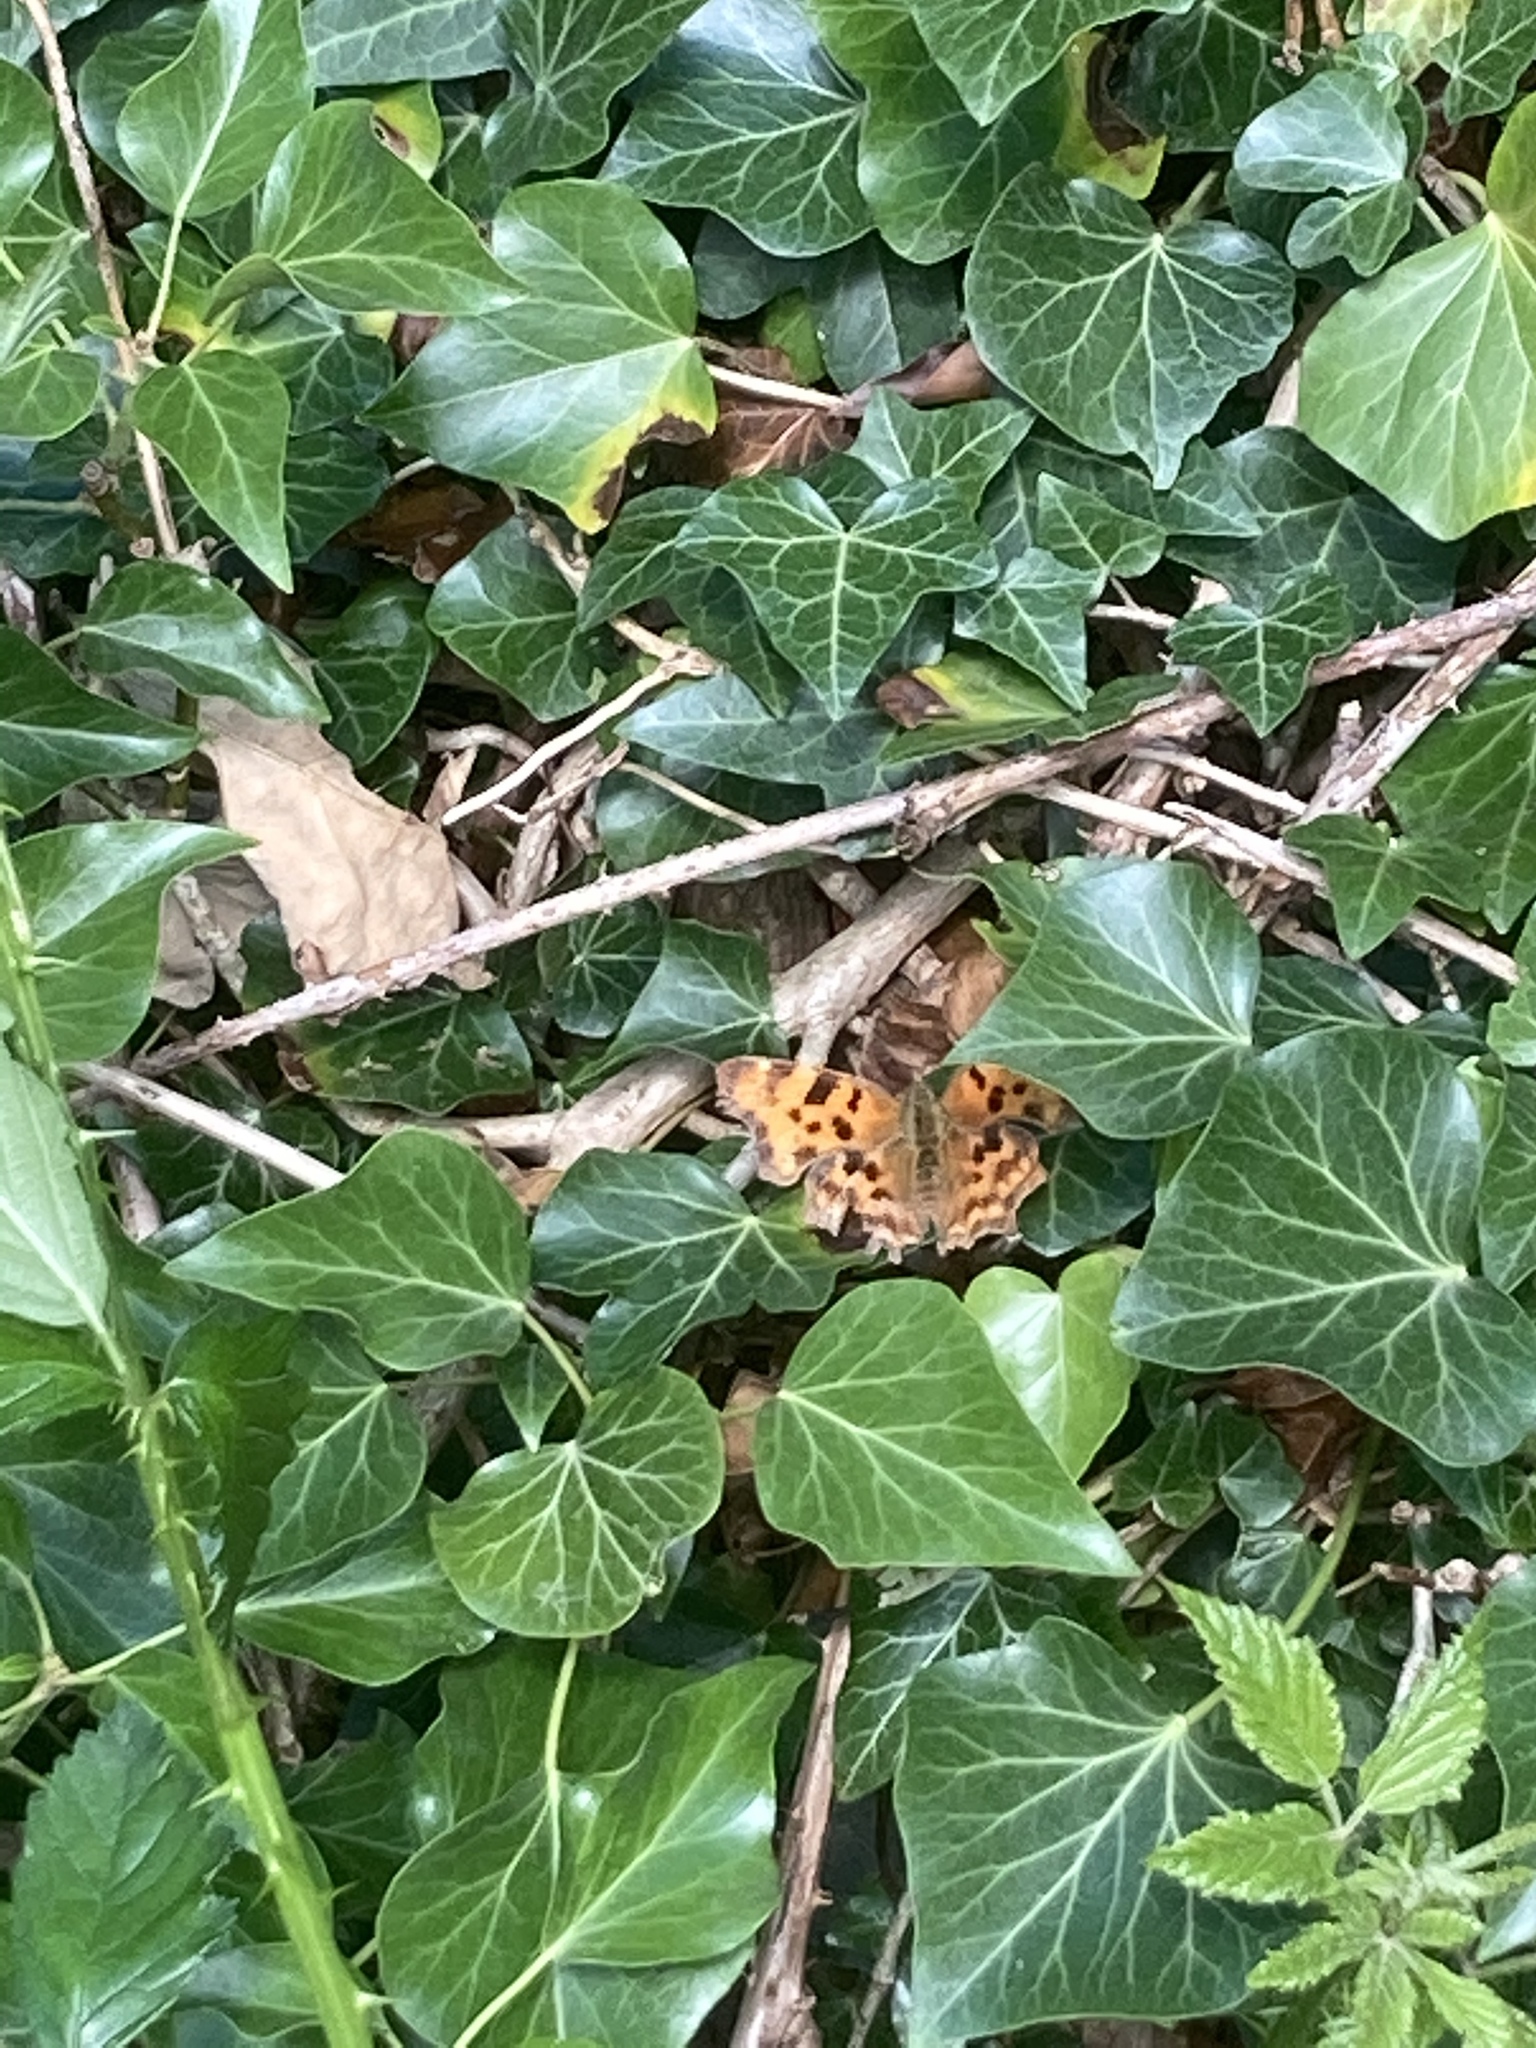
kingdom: Animalia
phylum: Arthropoda
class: Insecta
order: Lepidoptera
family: Nymphalidae
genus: Polygonia
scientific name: Polygonia c-album
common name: Comma
